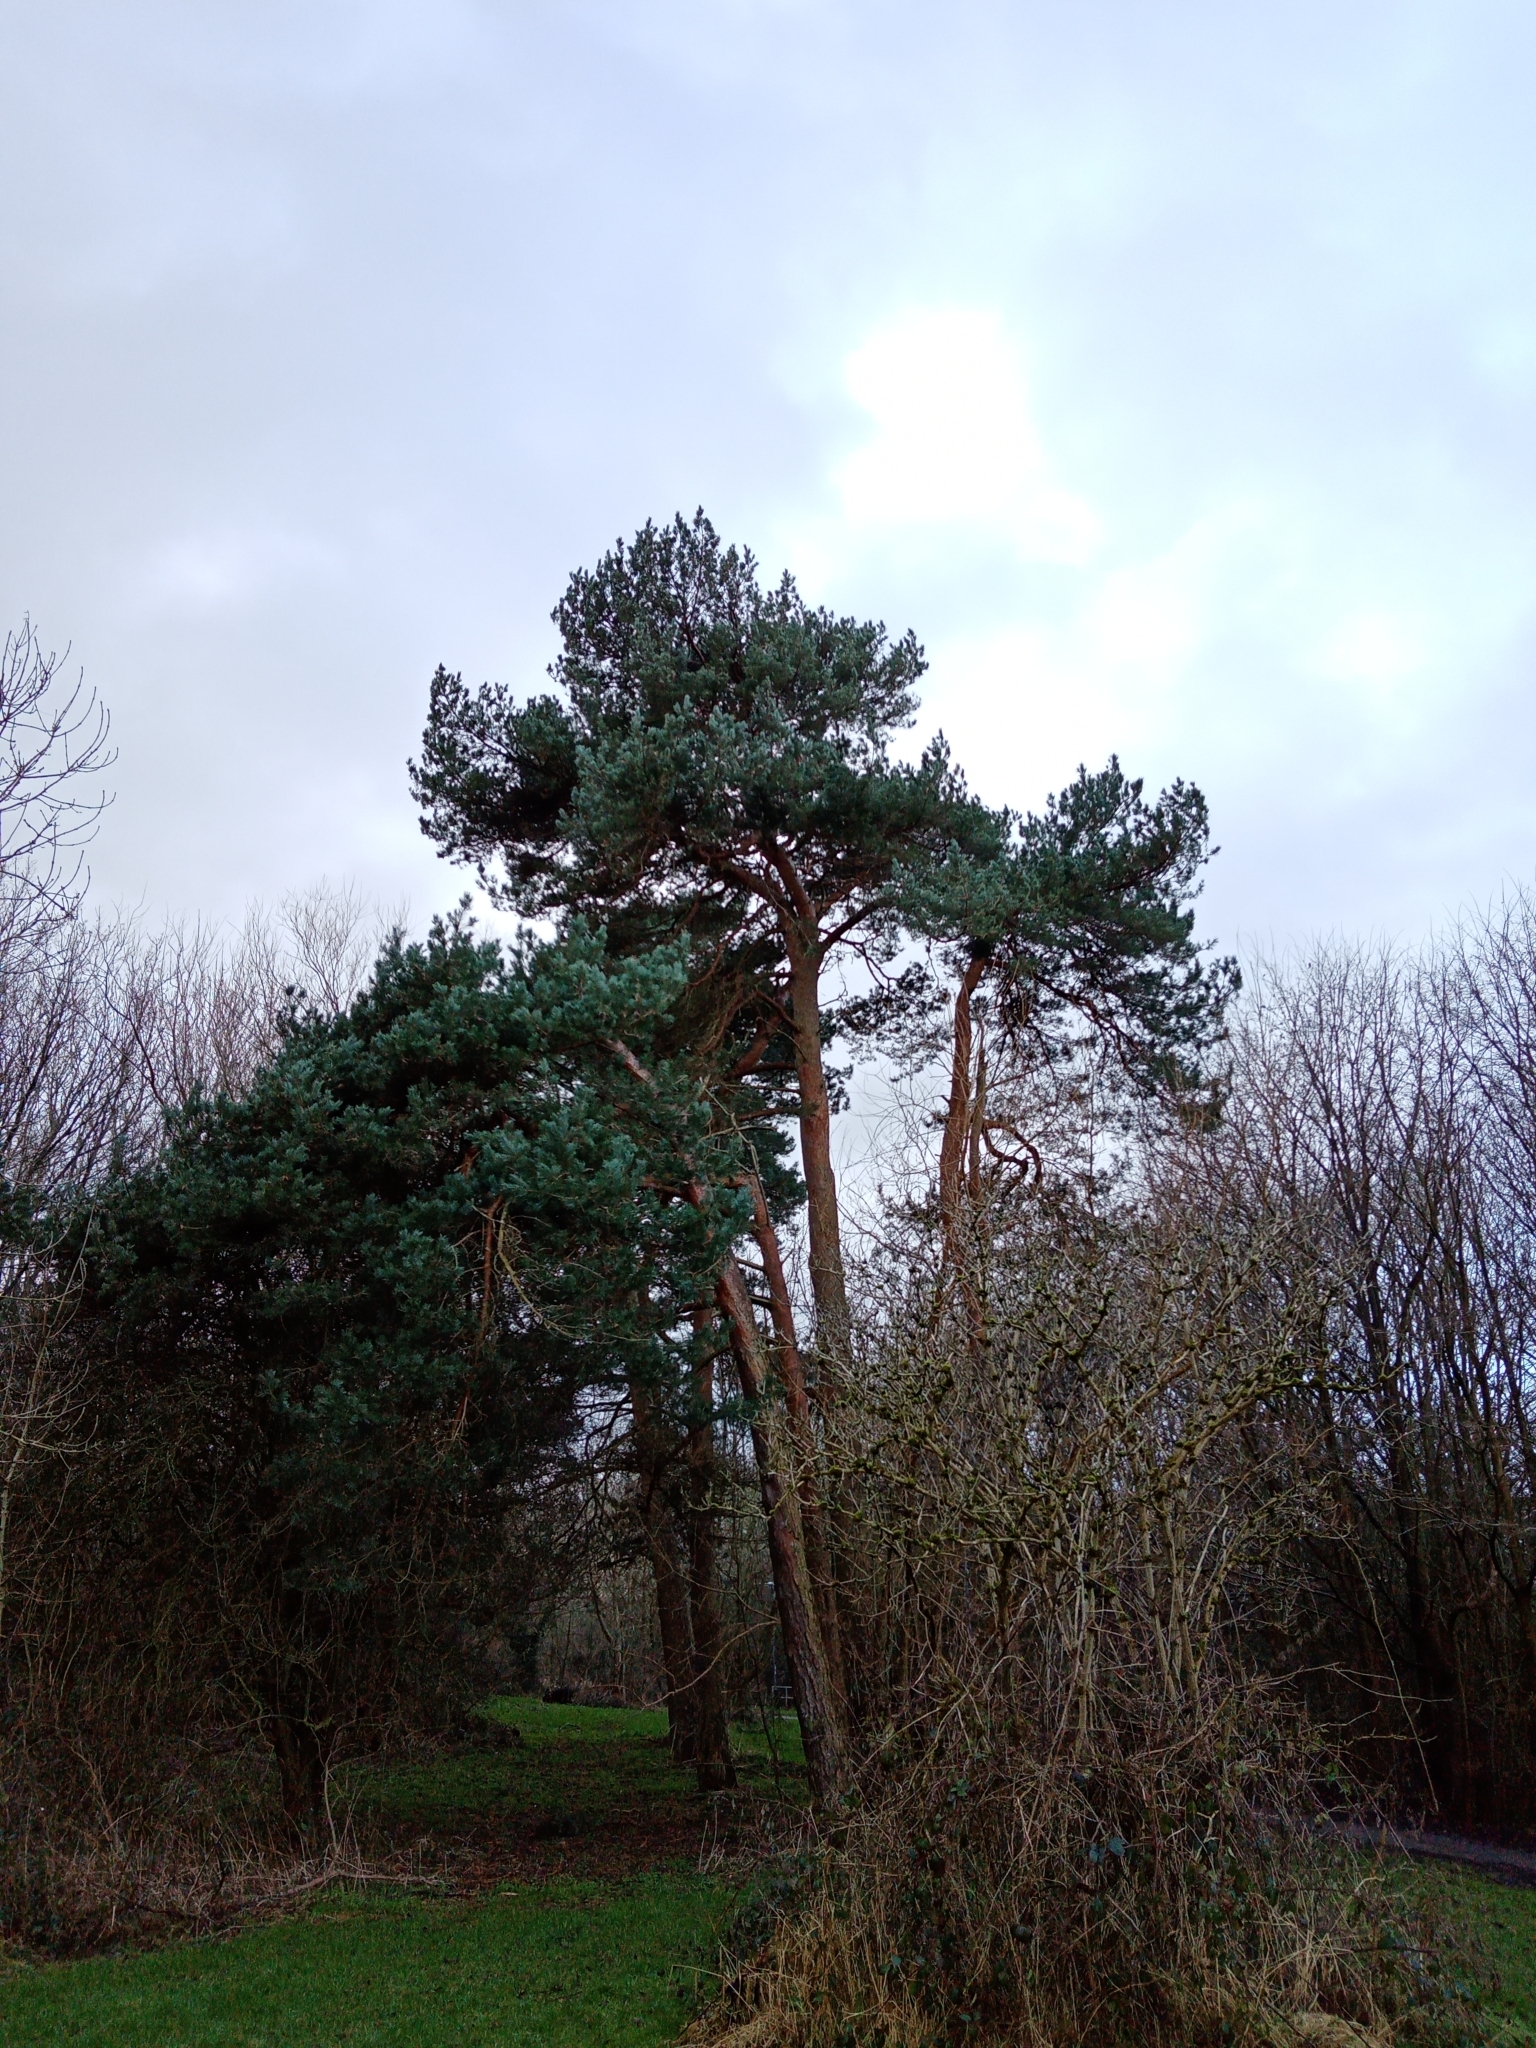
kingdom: Plantae
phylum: Tracheophyta
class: Pinopsida
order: Pinales
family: Pinaceae
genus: Pinus
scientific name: Pinus sylvestris
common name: Scots pine
